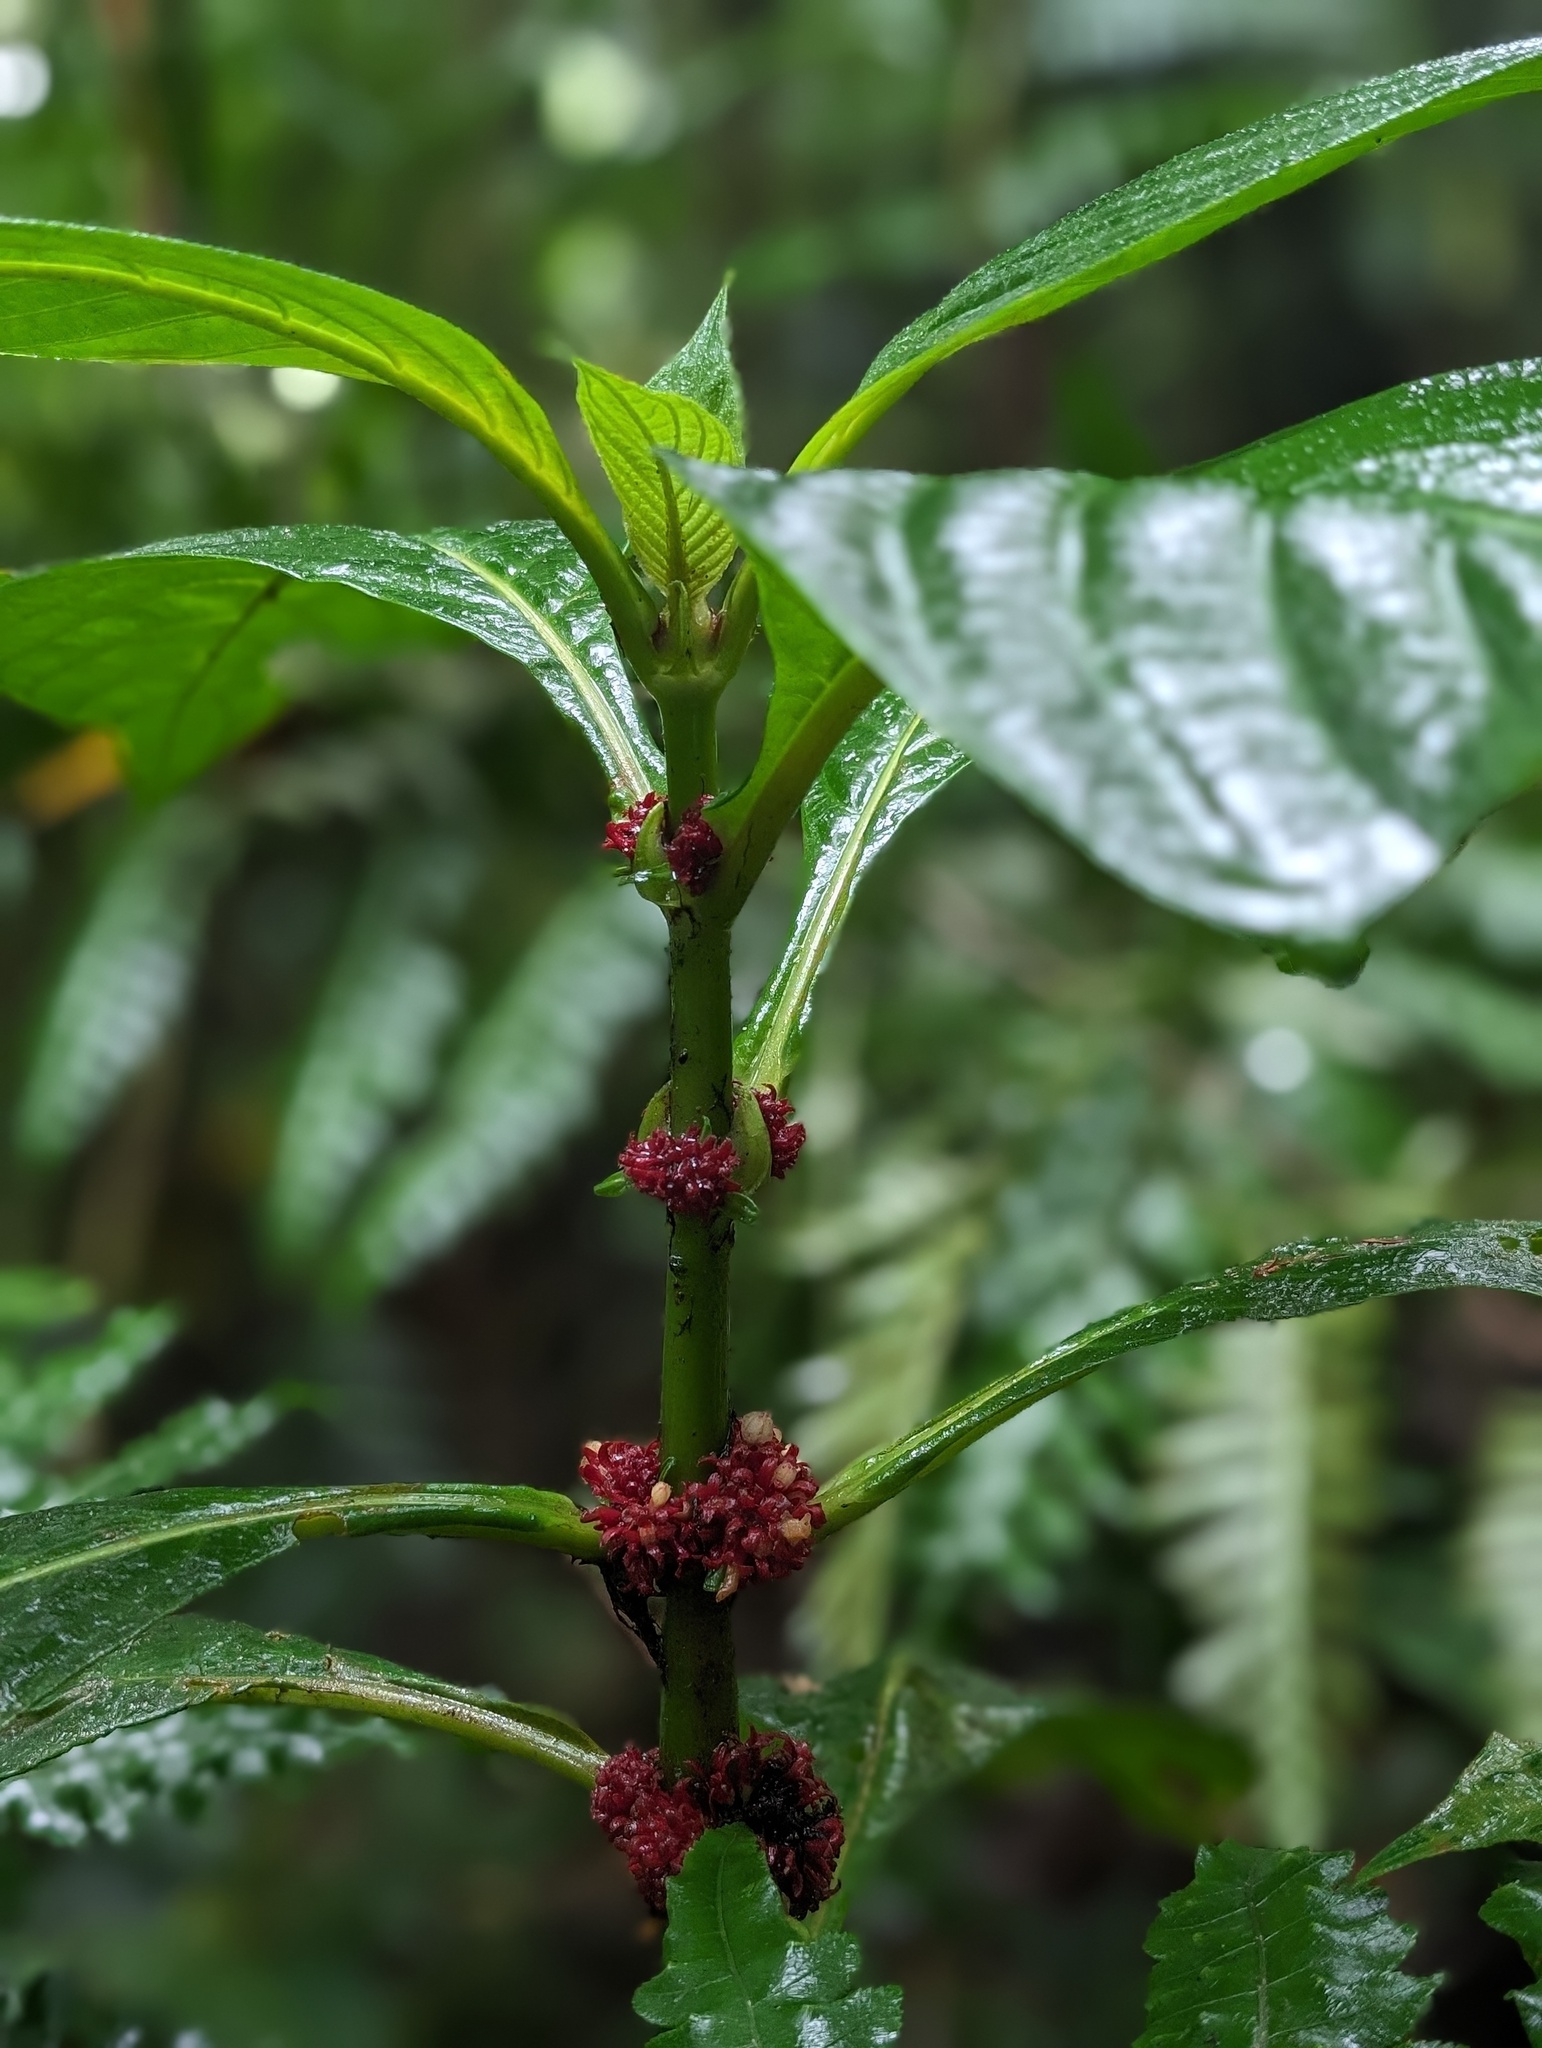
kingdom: Plantae
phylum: Tracheophyta
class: Magnoliopsida
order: Gentianales
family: Rubiaceae
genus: Hoffmannia
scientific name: Hoffmannia congesta
